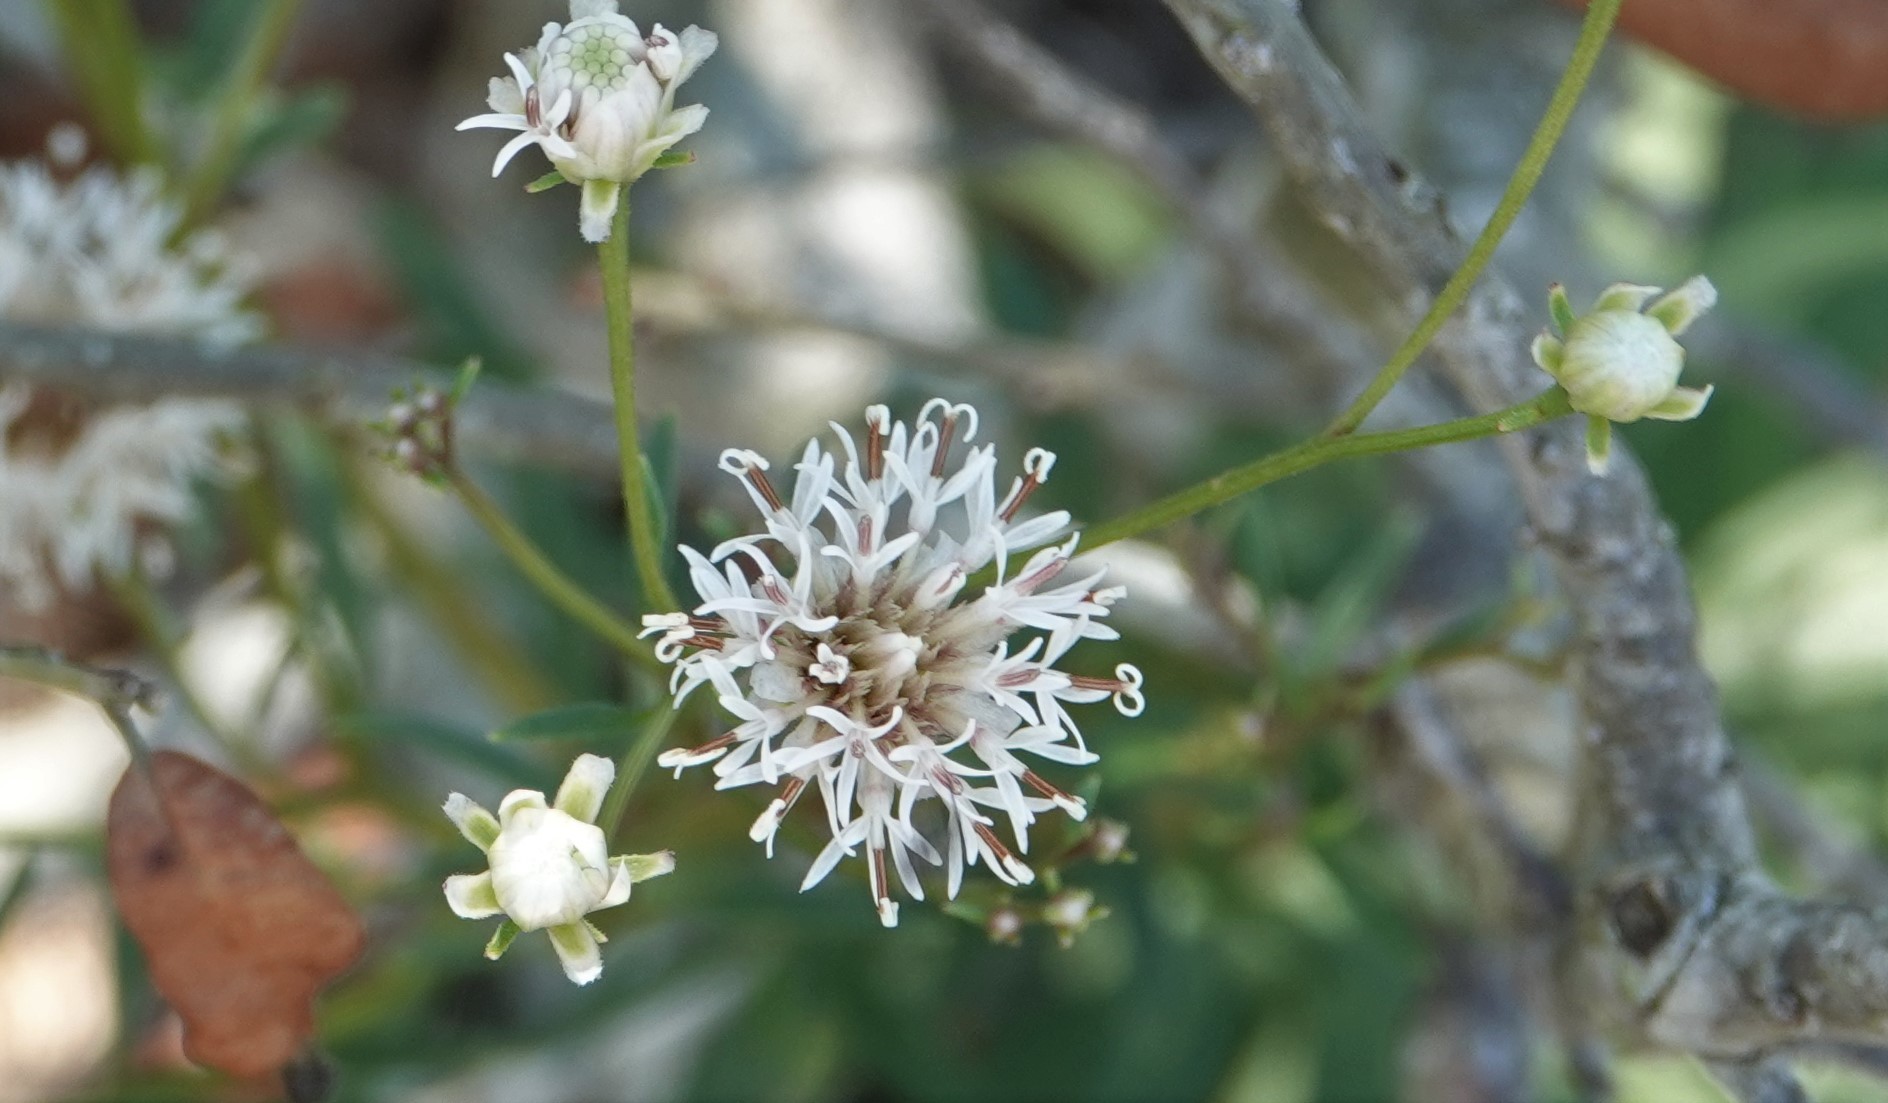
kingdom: Plantae
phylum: Tracheophyta
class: Magnoliopsida
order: Asterales
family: Asteraceae
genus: Palafoxia
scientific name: Palafoxia integrifolia
